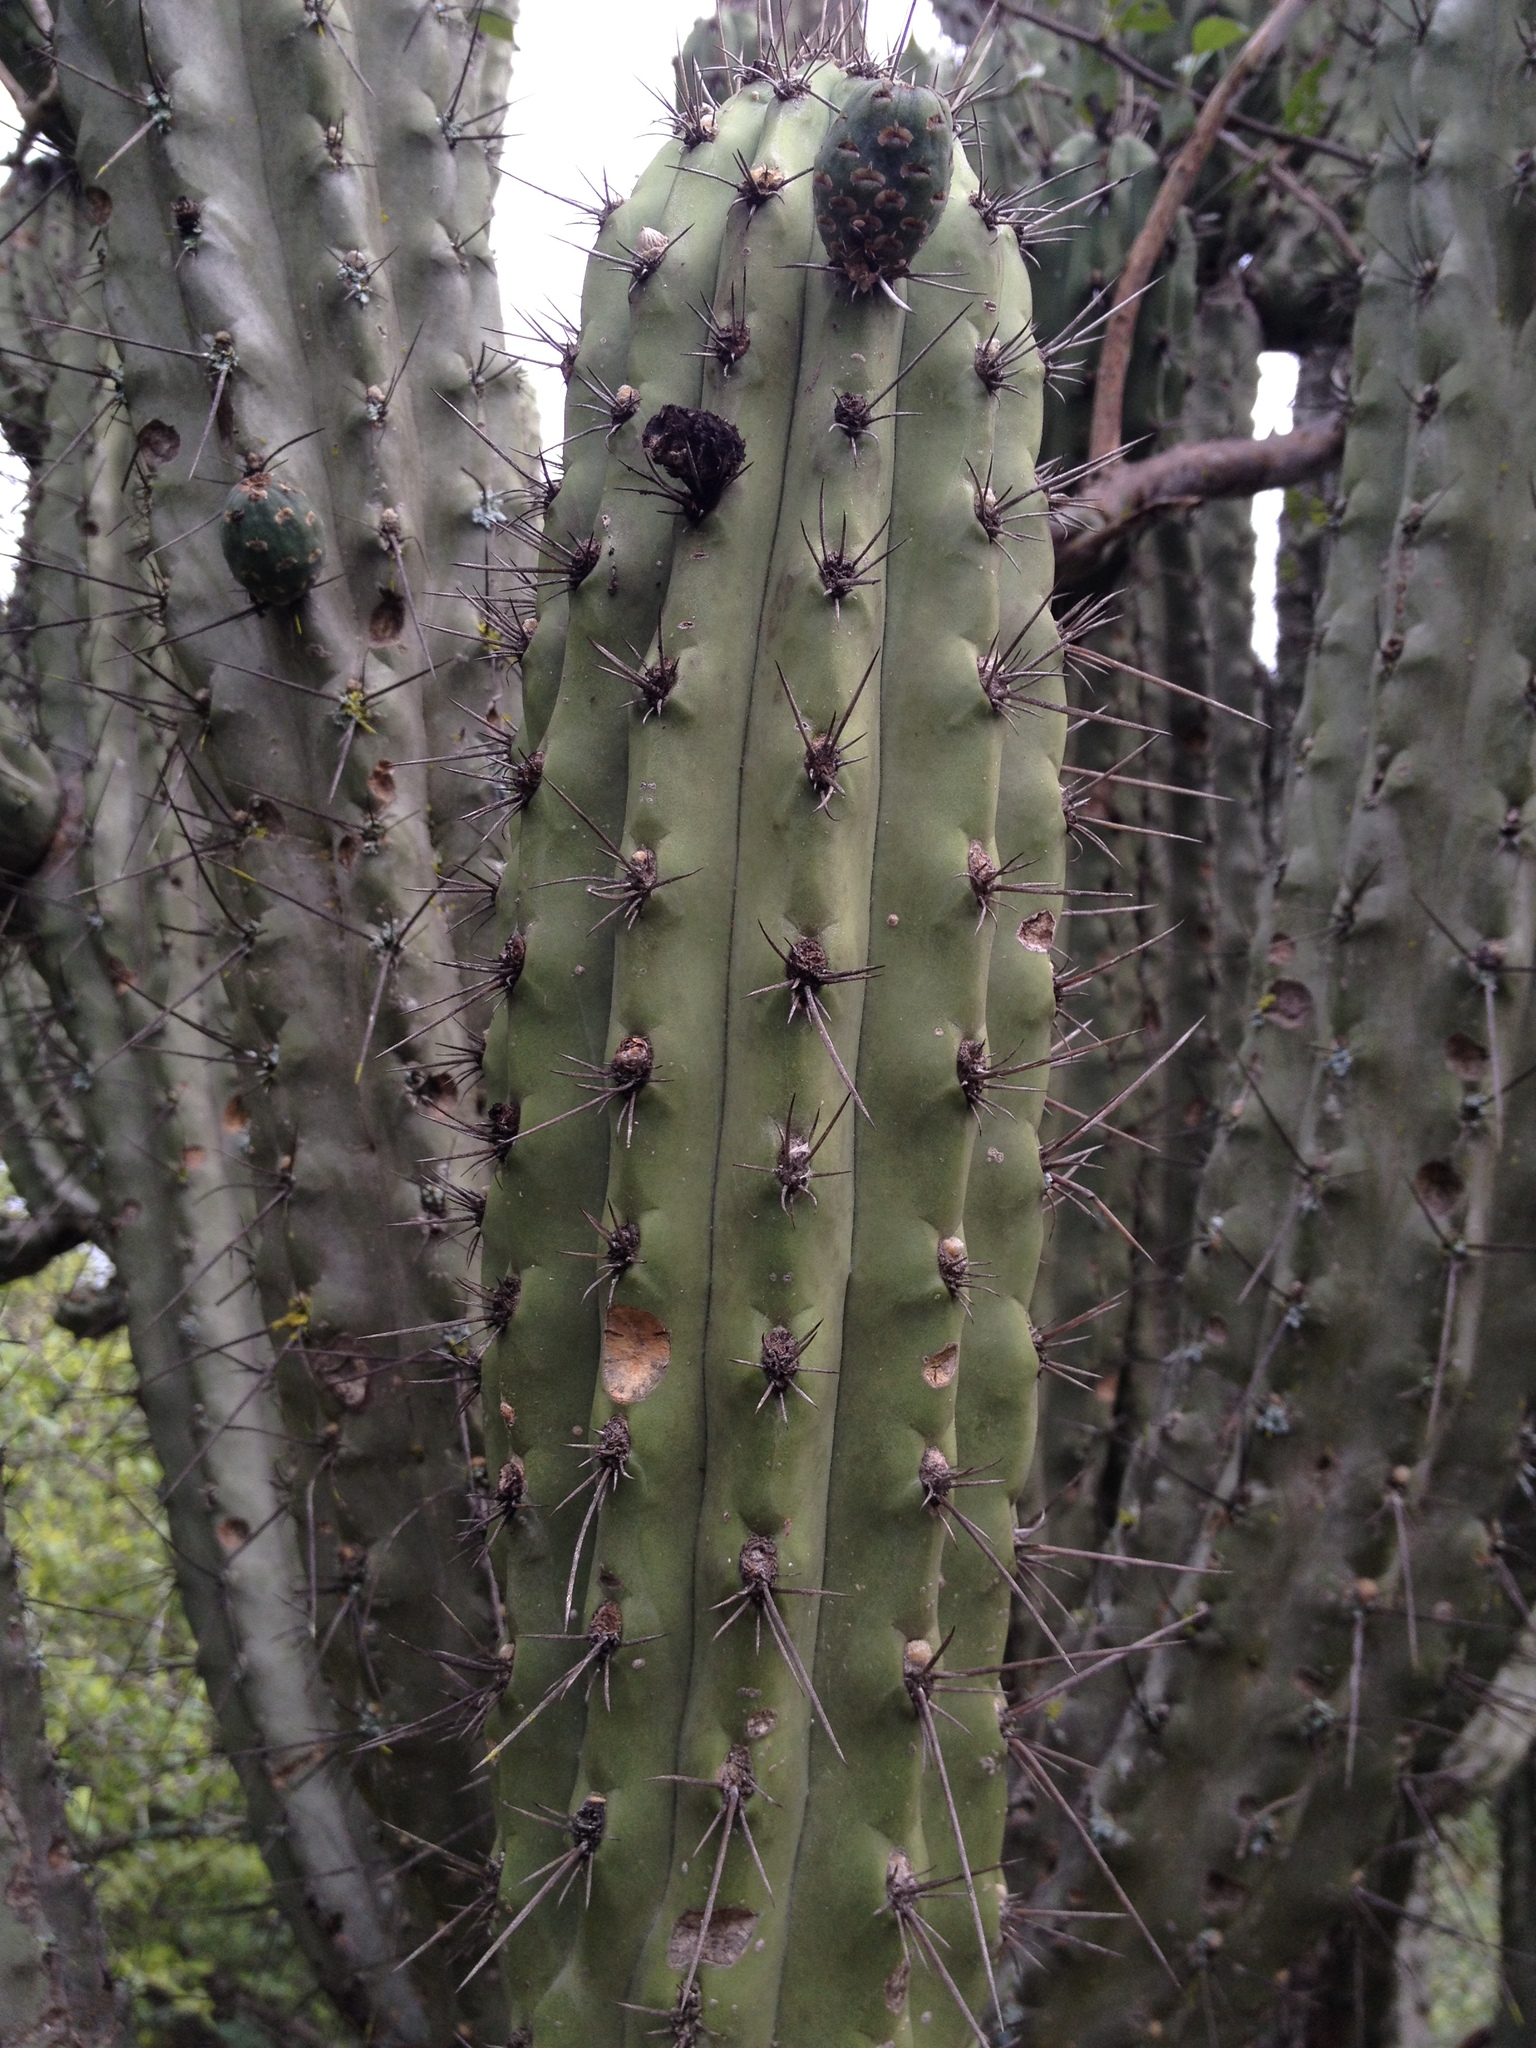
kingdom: Plantae
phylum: Tracheophyta
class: Magnoliopsida
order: Caryophyllales
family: Cactaceae
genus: Stetsonia
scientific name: Stetsonia coryne
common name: Toothpick cactus
